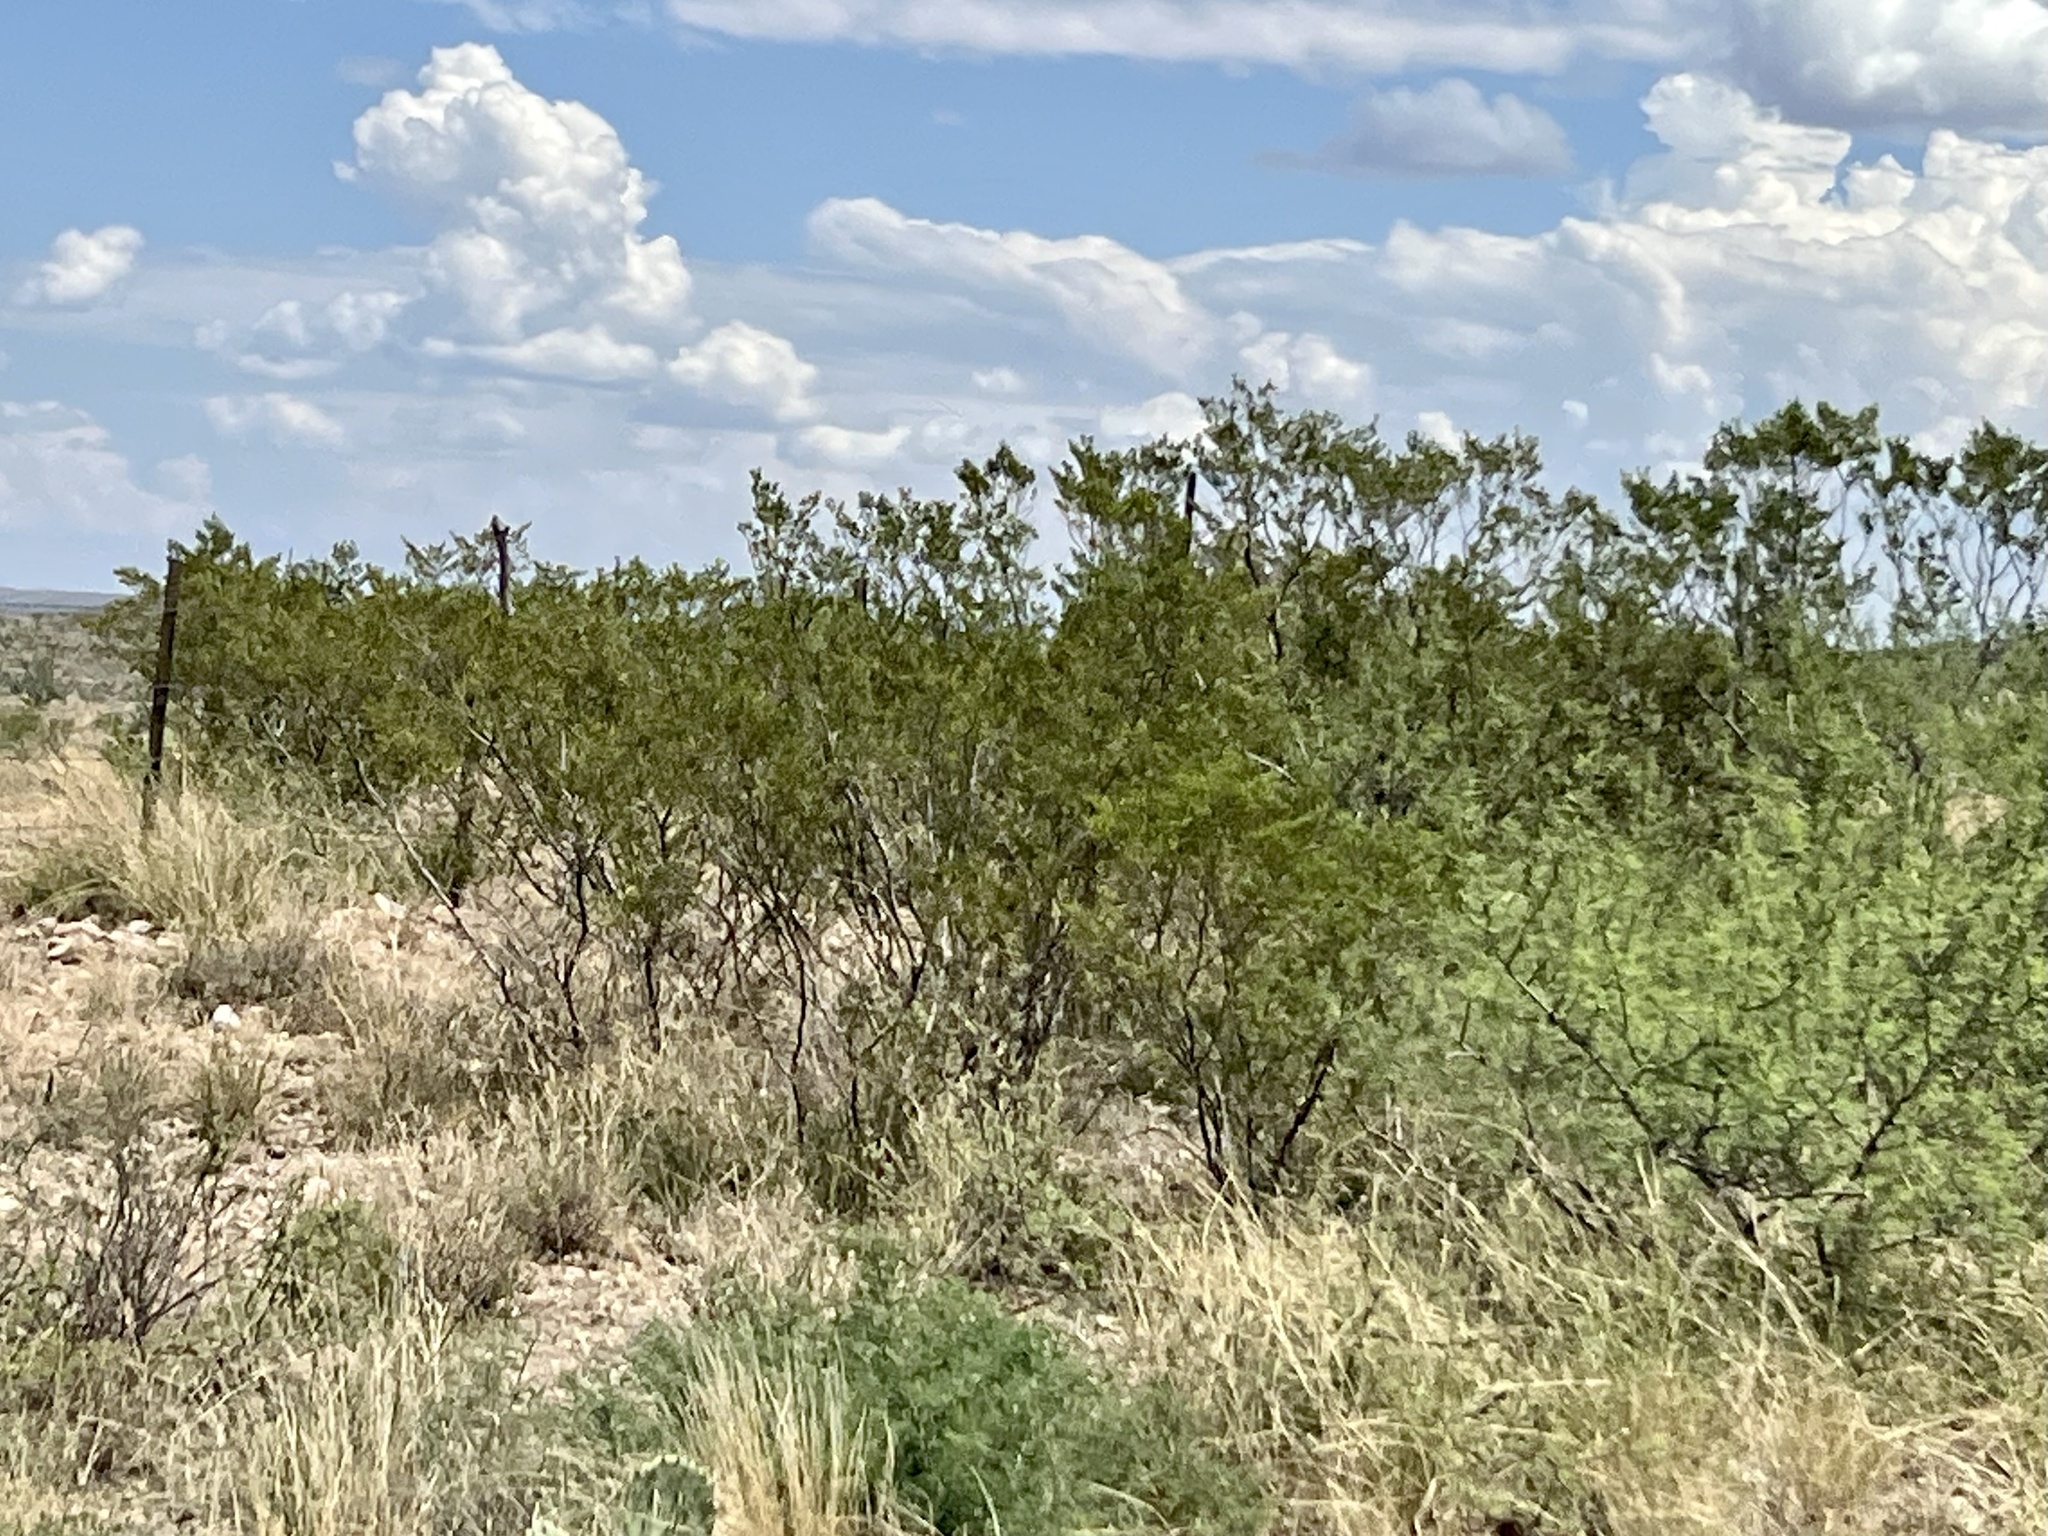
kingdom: Plantae
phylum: Tracheophyta
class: Magnoliopsida
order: Zygophyllales
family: Zygophyllaceae
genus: Larrea
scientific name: Larrea tridentata
